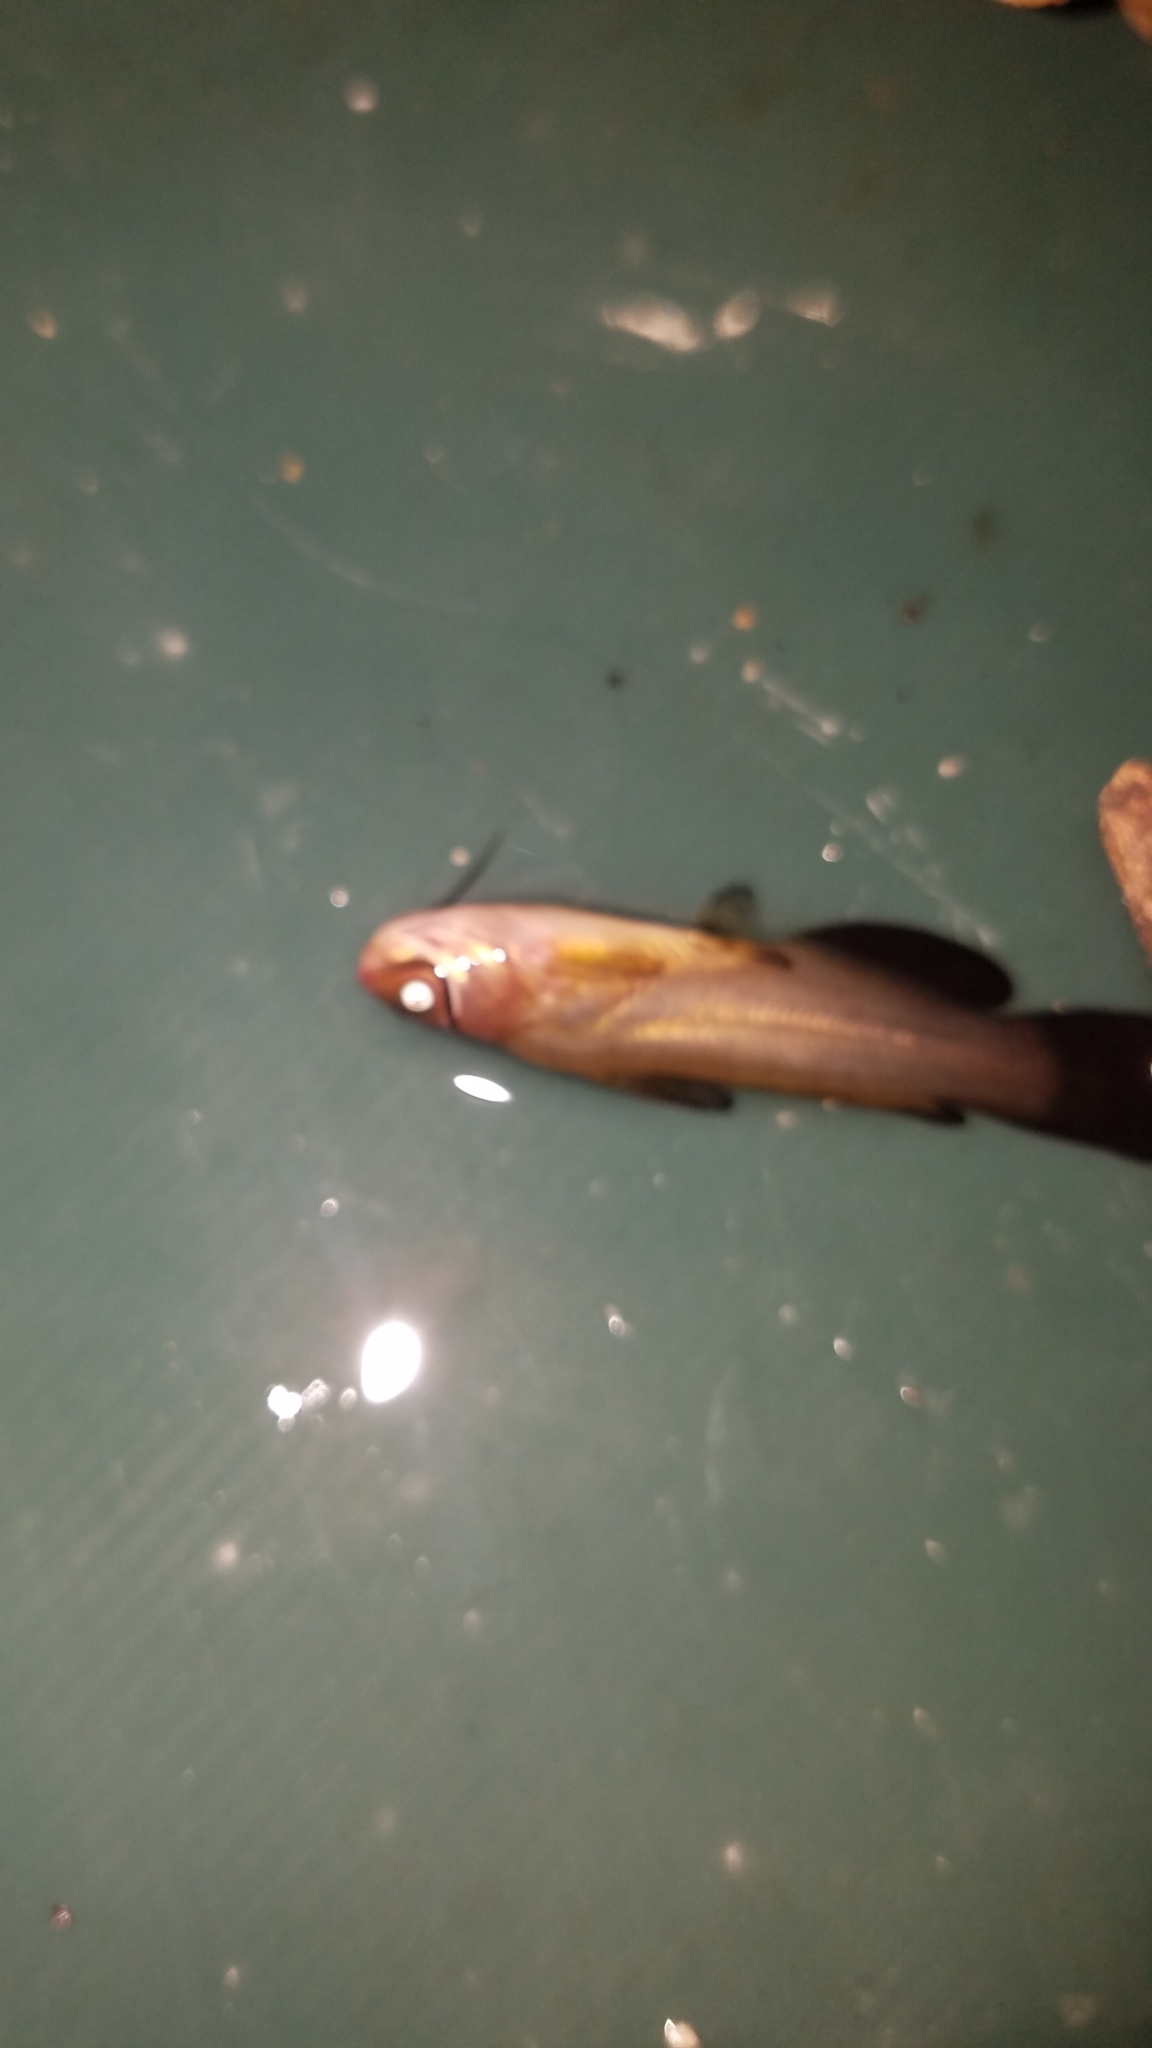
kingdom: Animalia
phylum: Chordata
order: Siluriformes
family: Ictaluridae
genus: Ameiurus
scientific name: Ameiurus natalis
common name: Yellow bullhead
